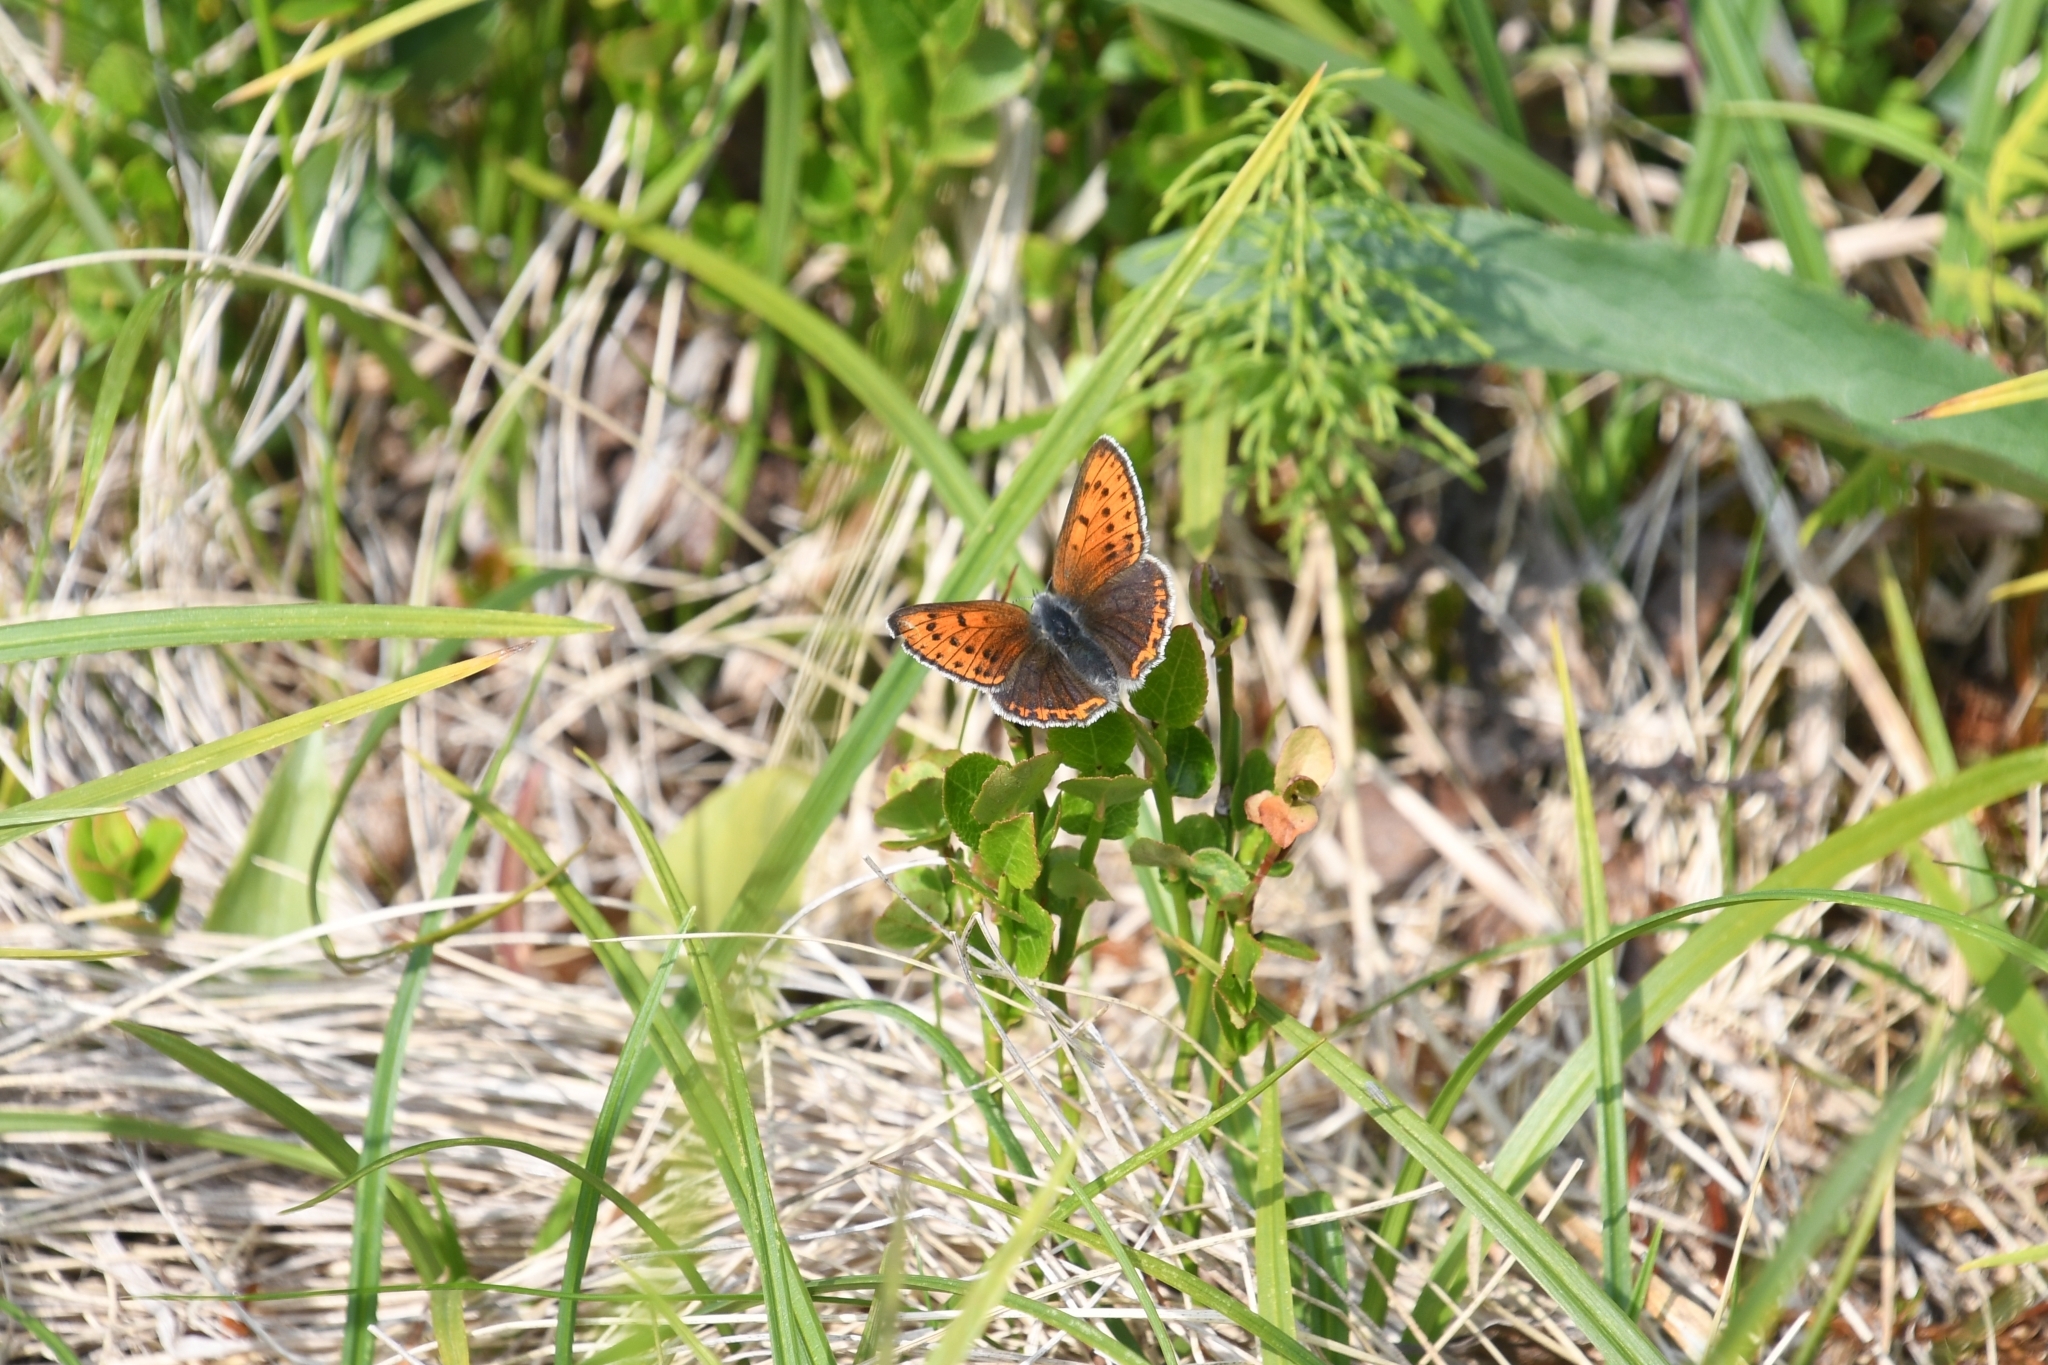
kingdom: Animalia
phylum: Arthropoda
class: Insecta
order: Lepidoptera
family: Lycaenidae
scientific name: Lycaenidae
